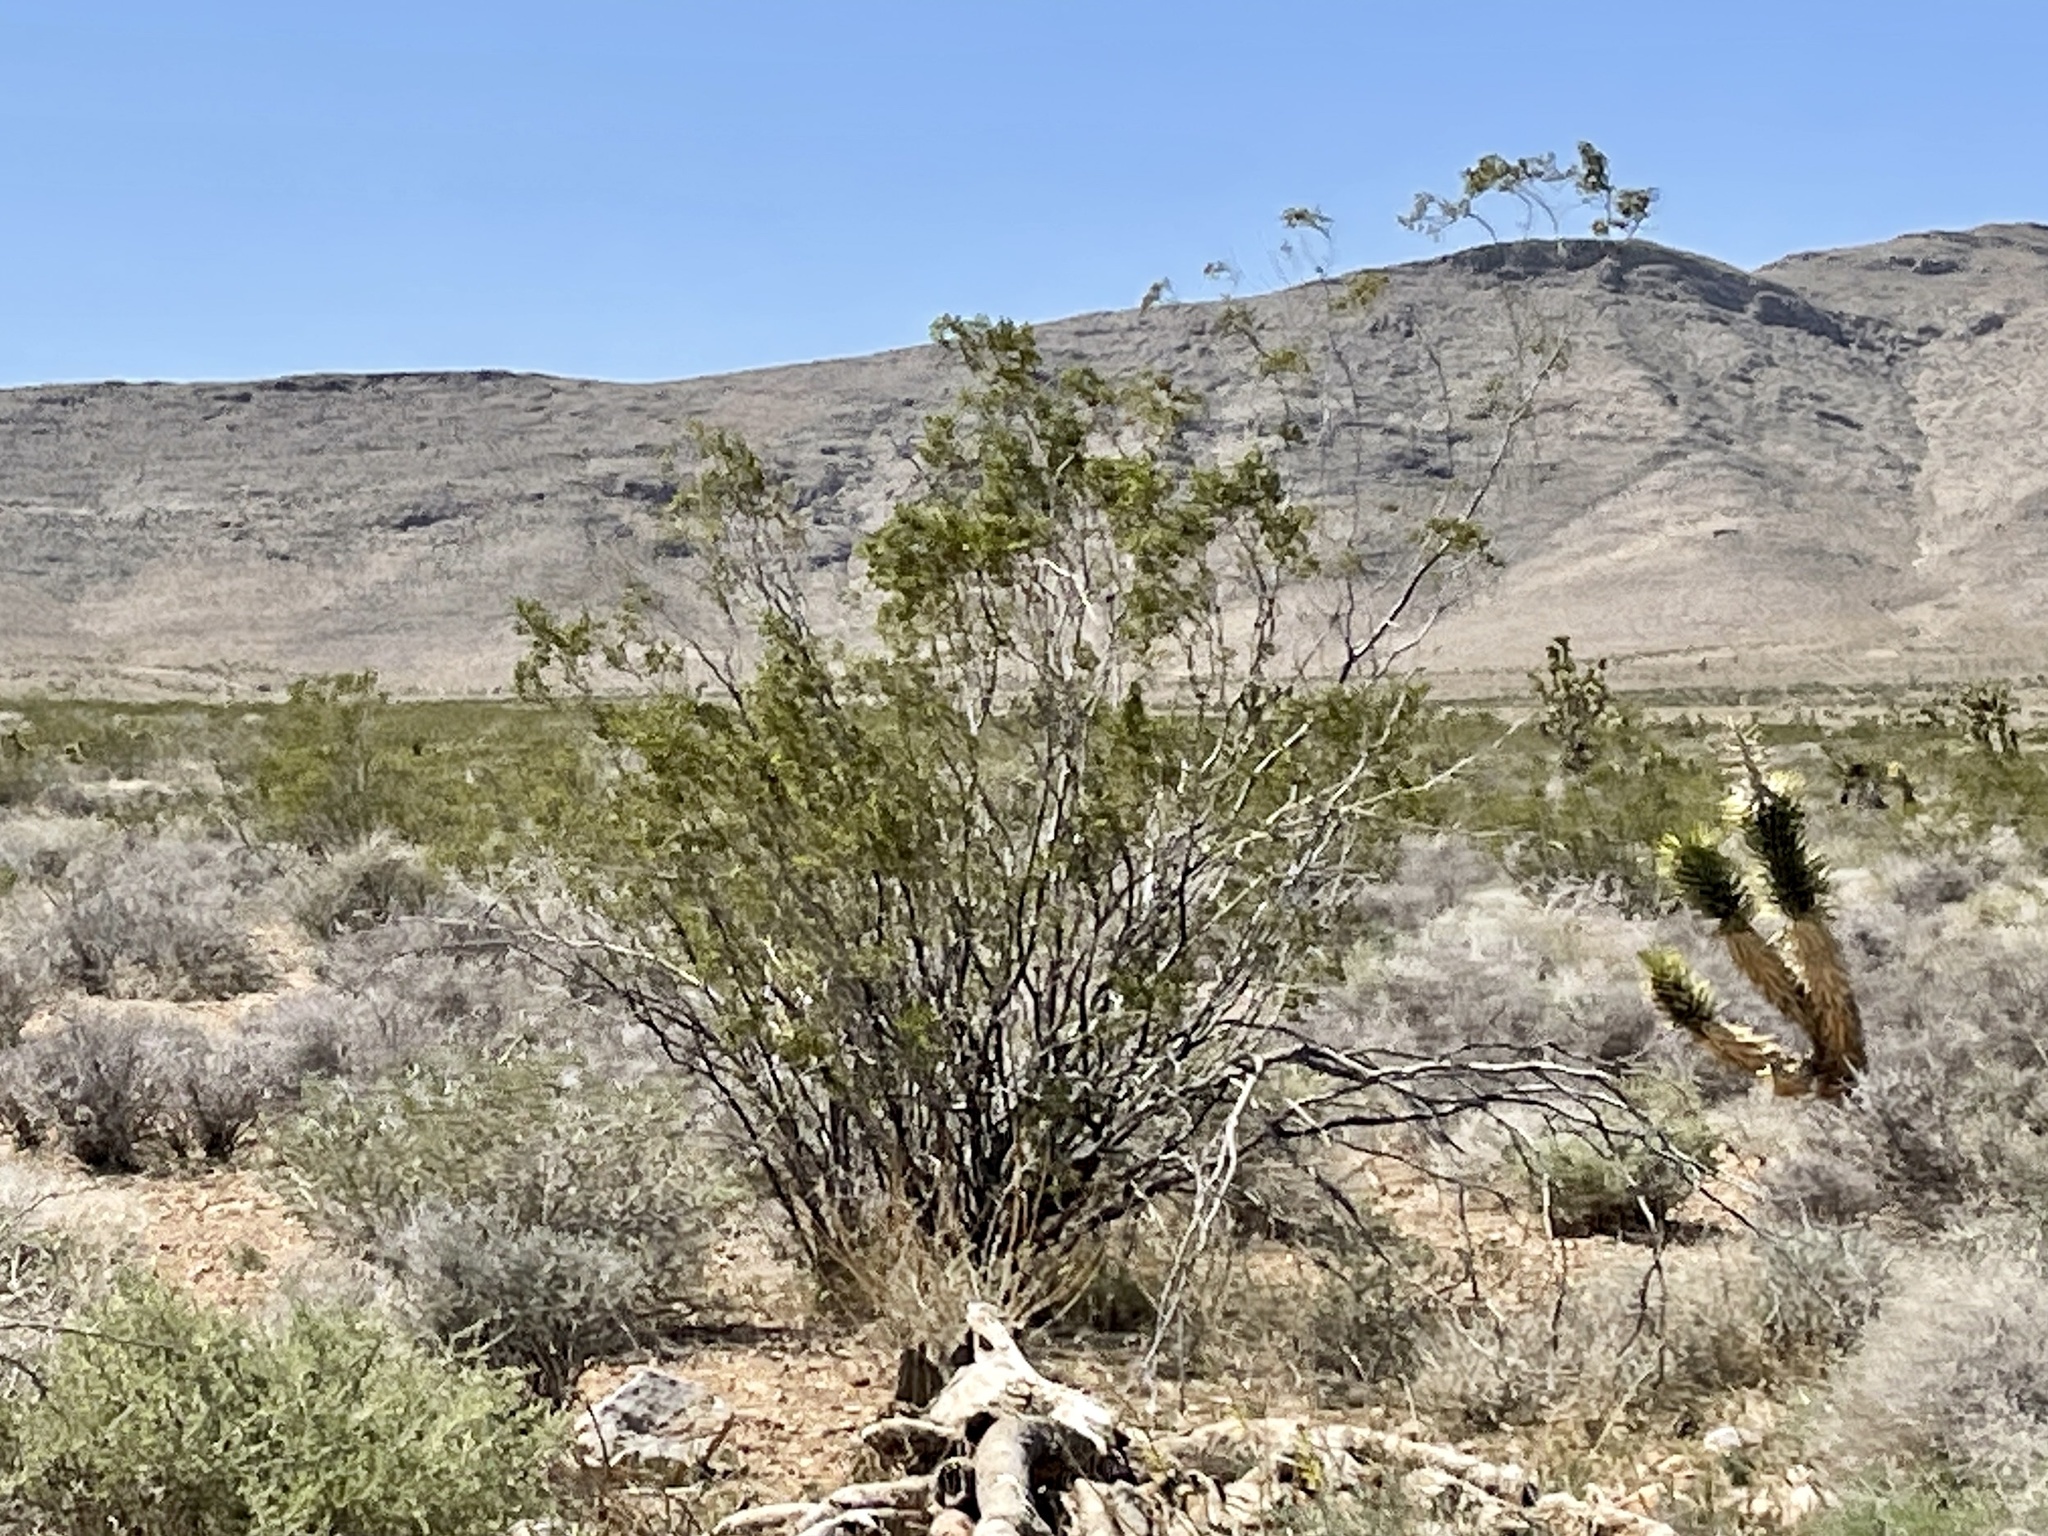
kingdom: Plantae
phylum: Tracheophyta
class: Magnoliopsida
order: Zygophyllales
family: Zygophyllaceae
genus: Larrea
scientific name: Larrea tridentata
